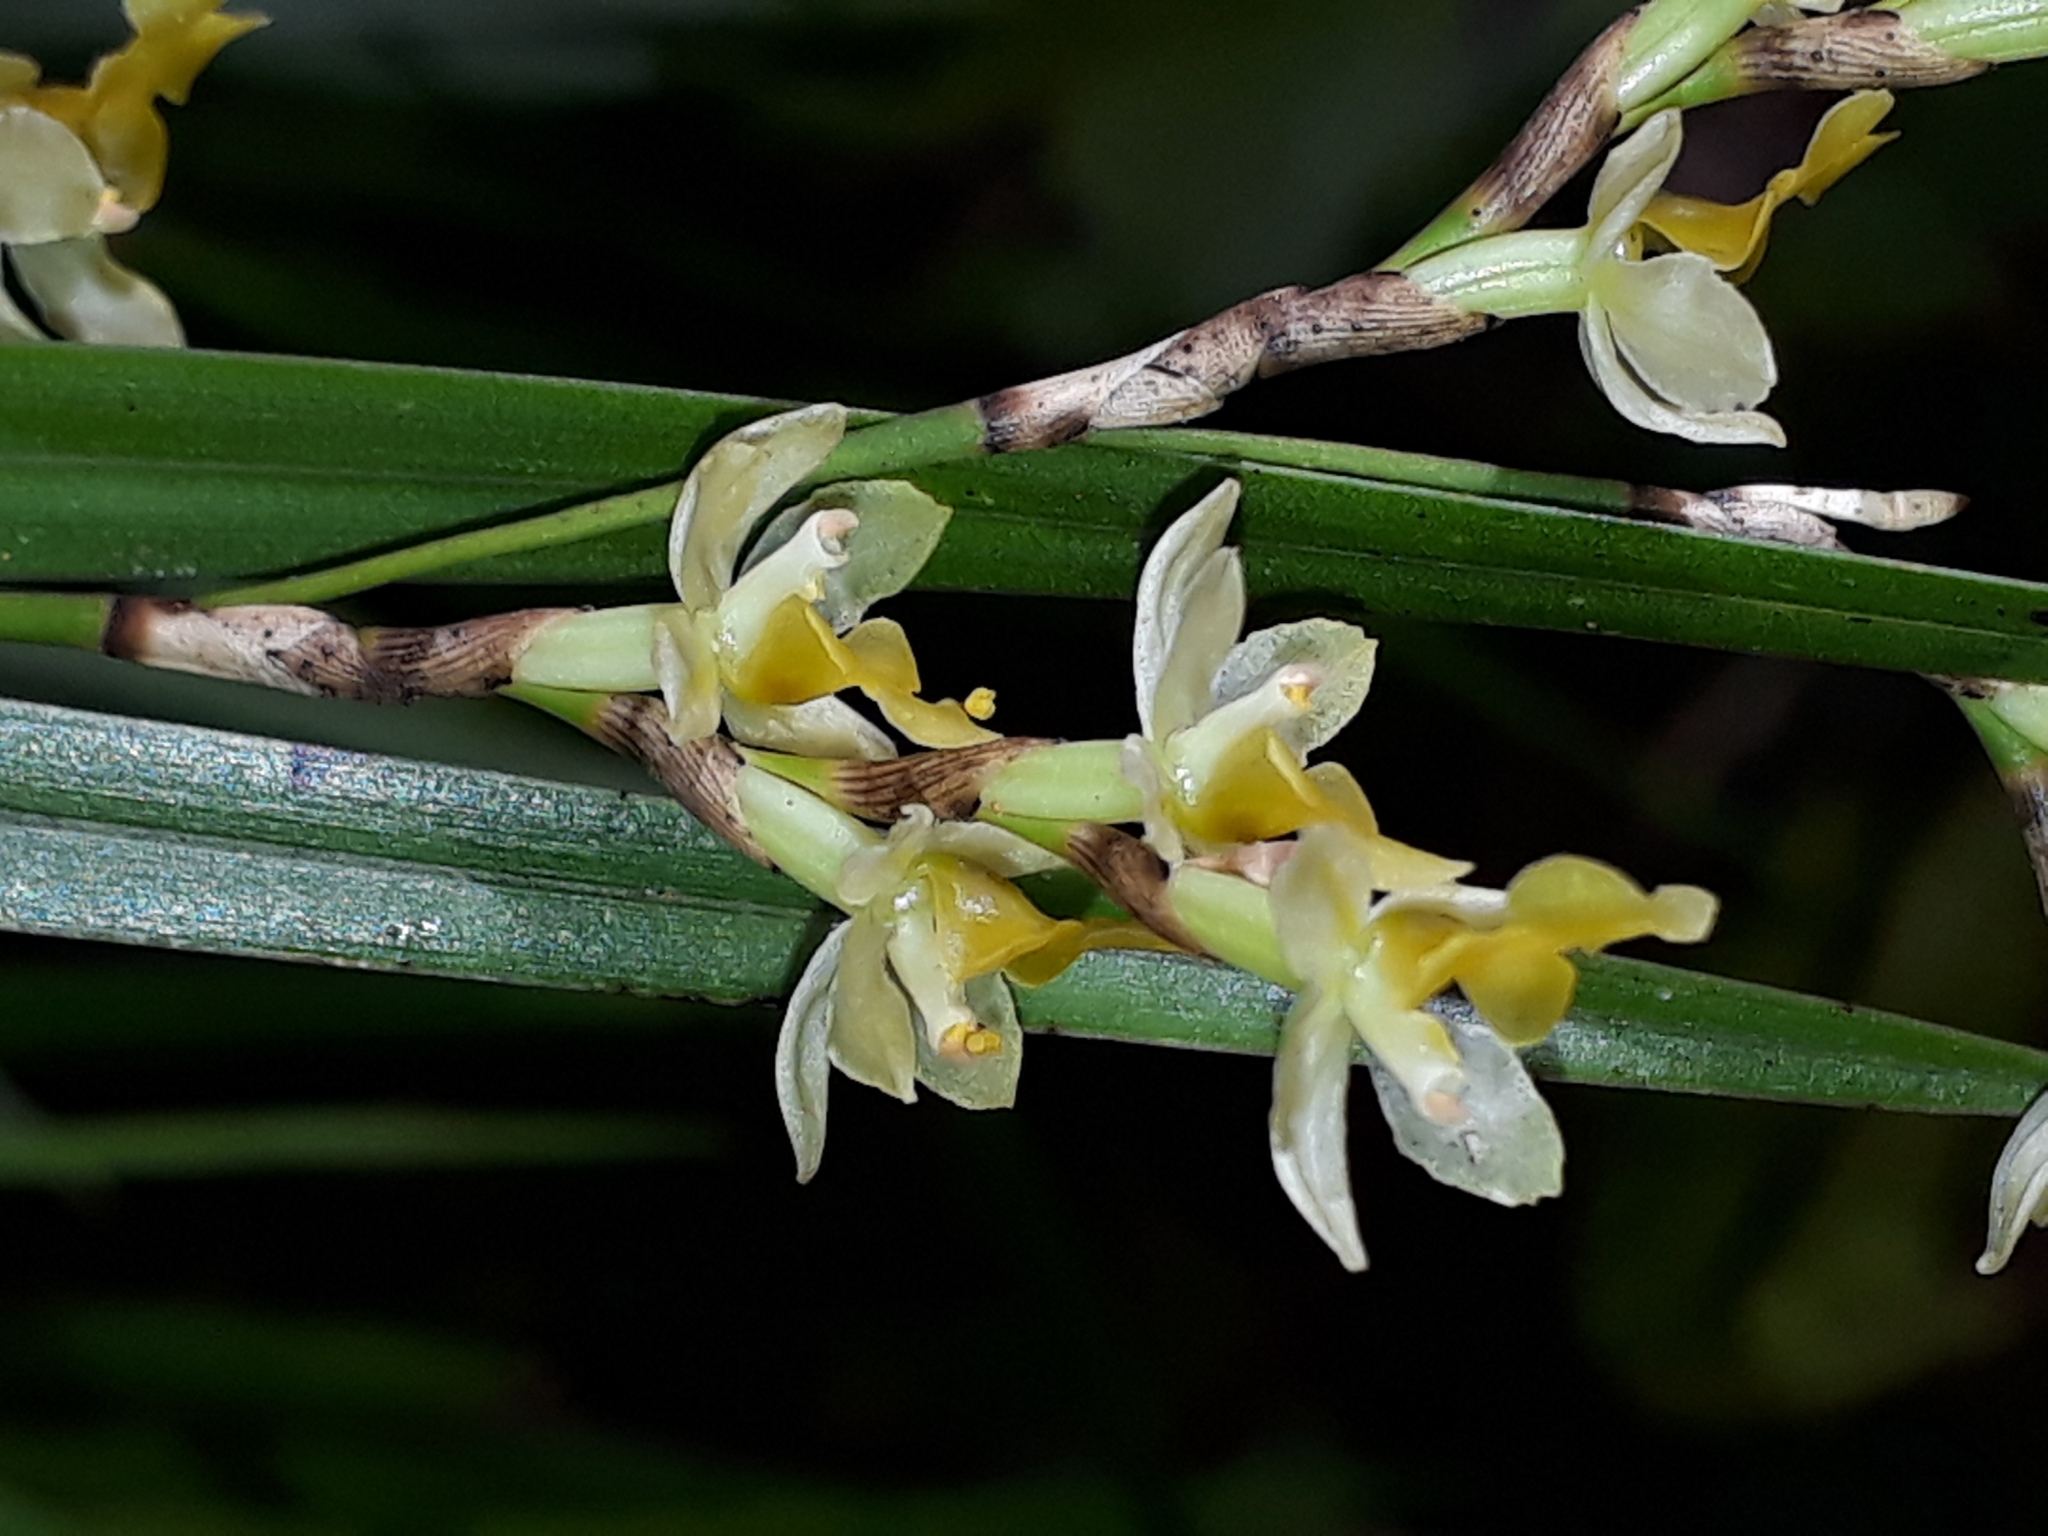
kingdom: Plantae
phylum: Tracheophyta
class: Liliopsida
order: Asparagales
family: Orchidaceae
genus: Earina
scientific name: Earina mucronata
